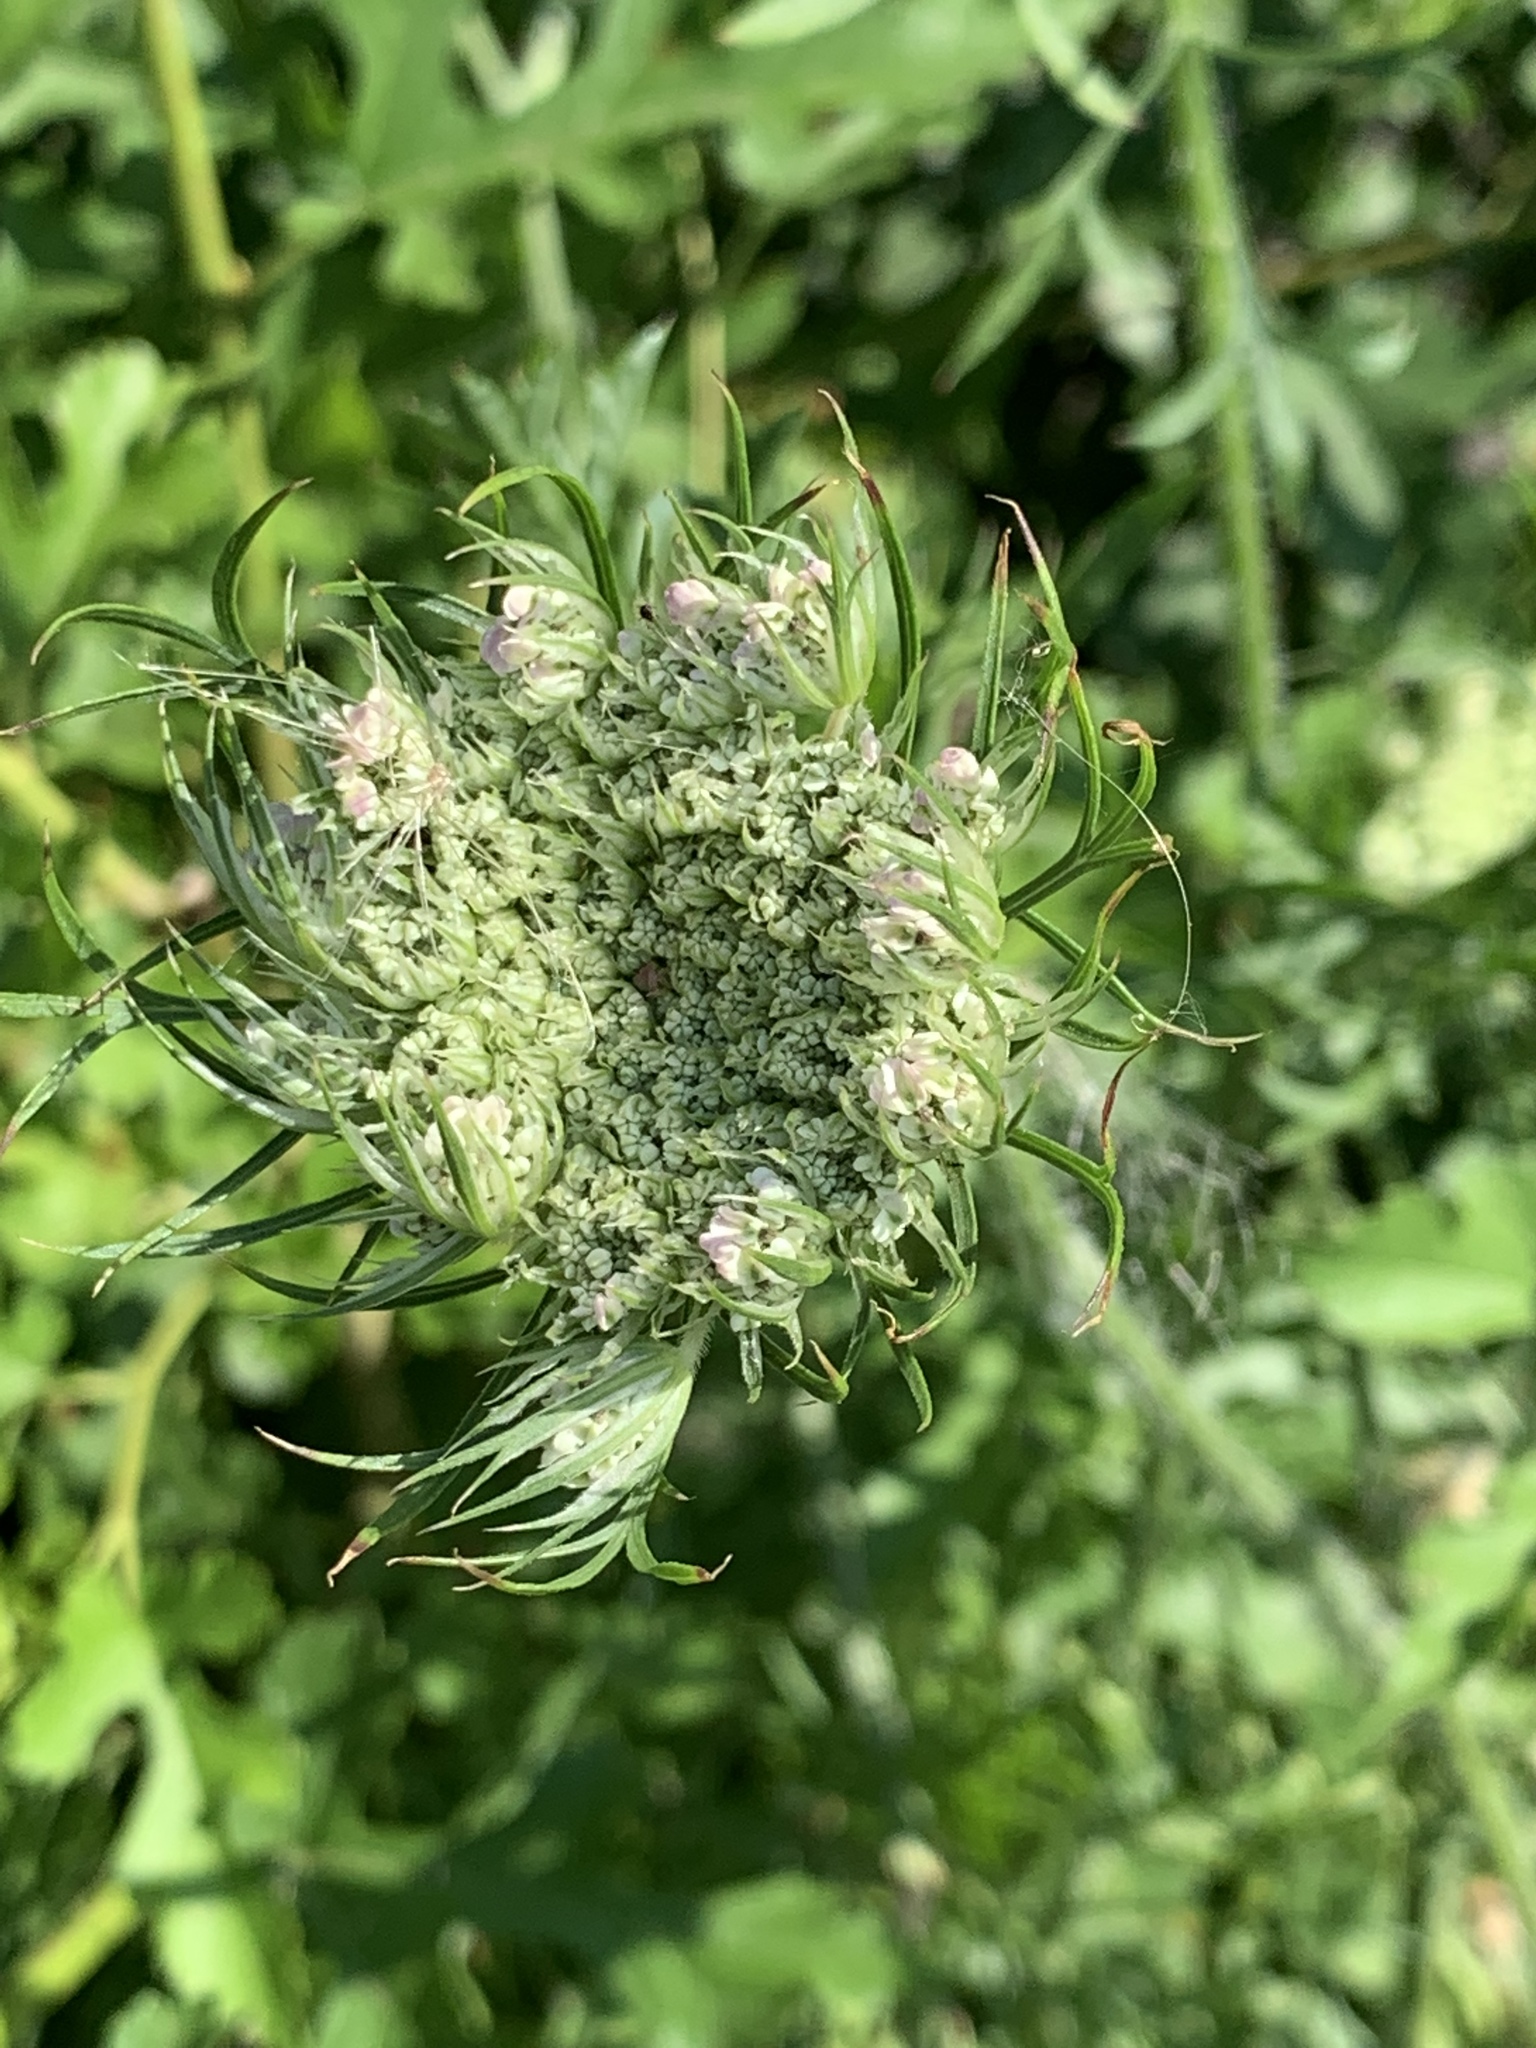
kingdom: Plantae
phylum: Tracheophyta
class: Magnoliopsida
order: Apiales
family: Apiaceae
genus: Daucus
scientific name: Daucus carota
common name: Wild carrot
